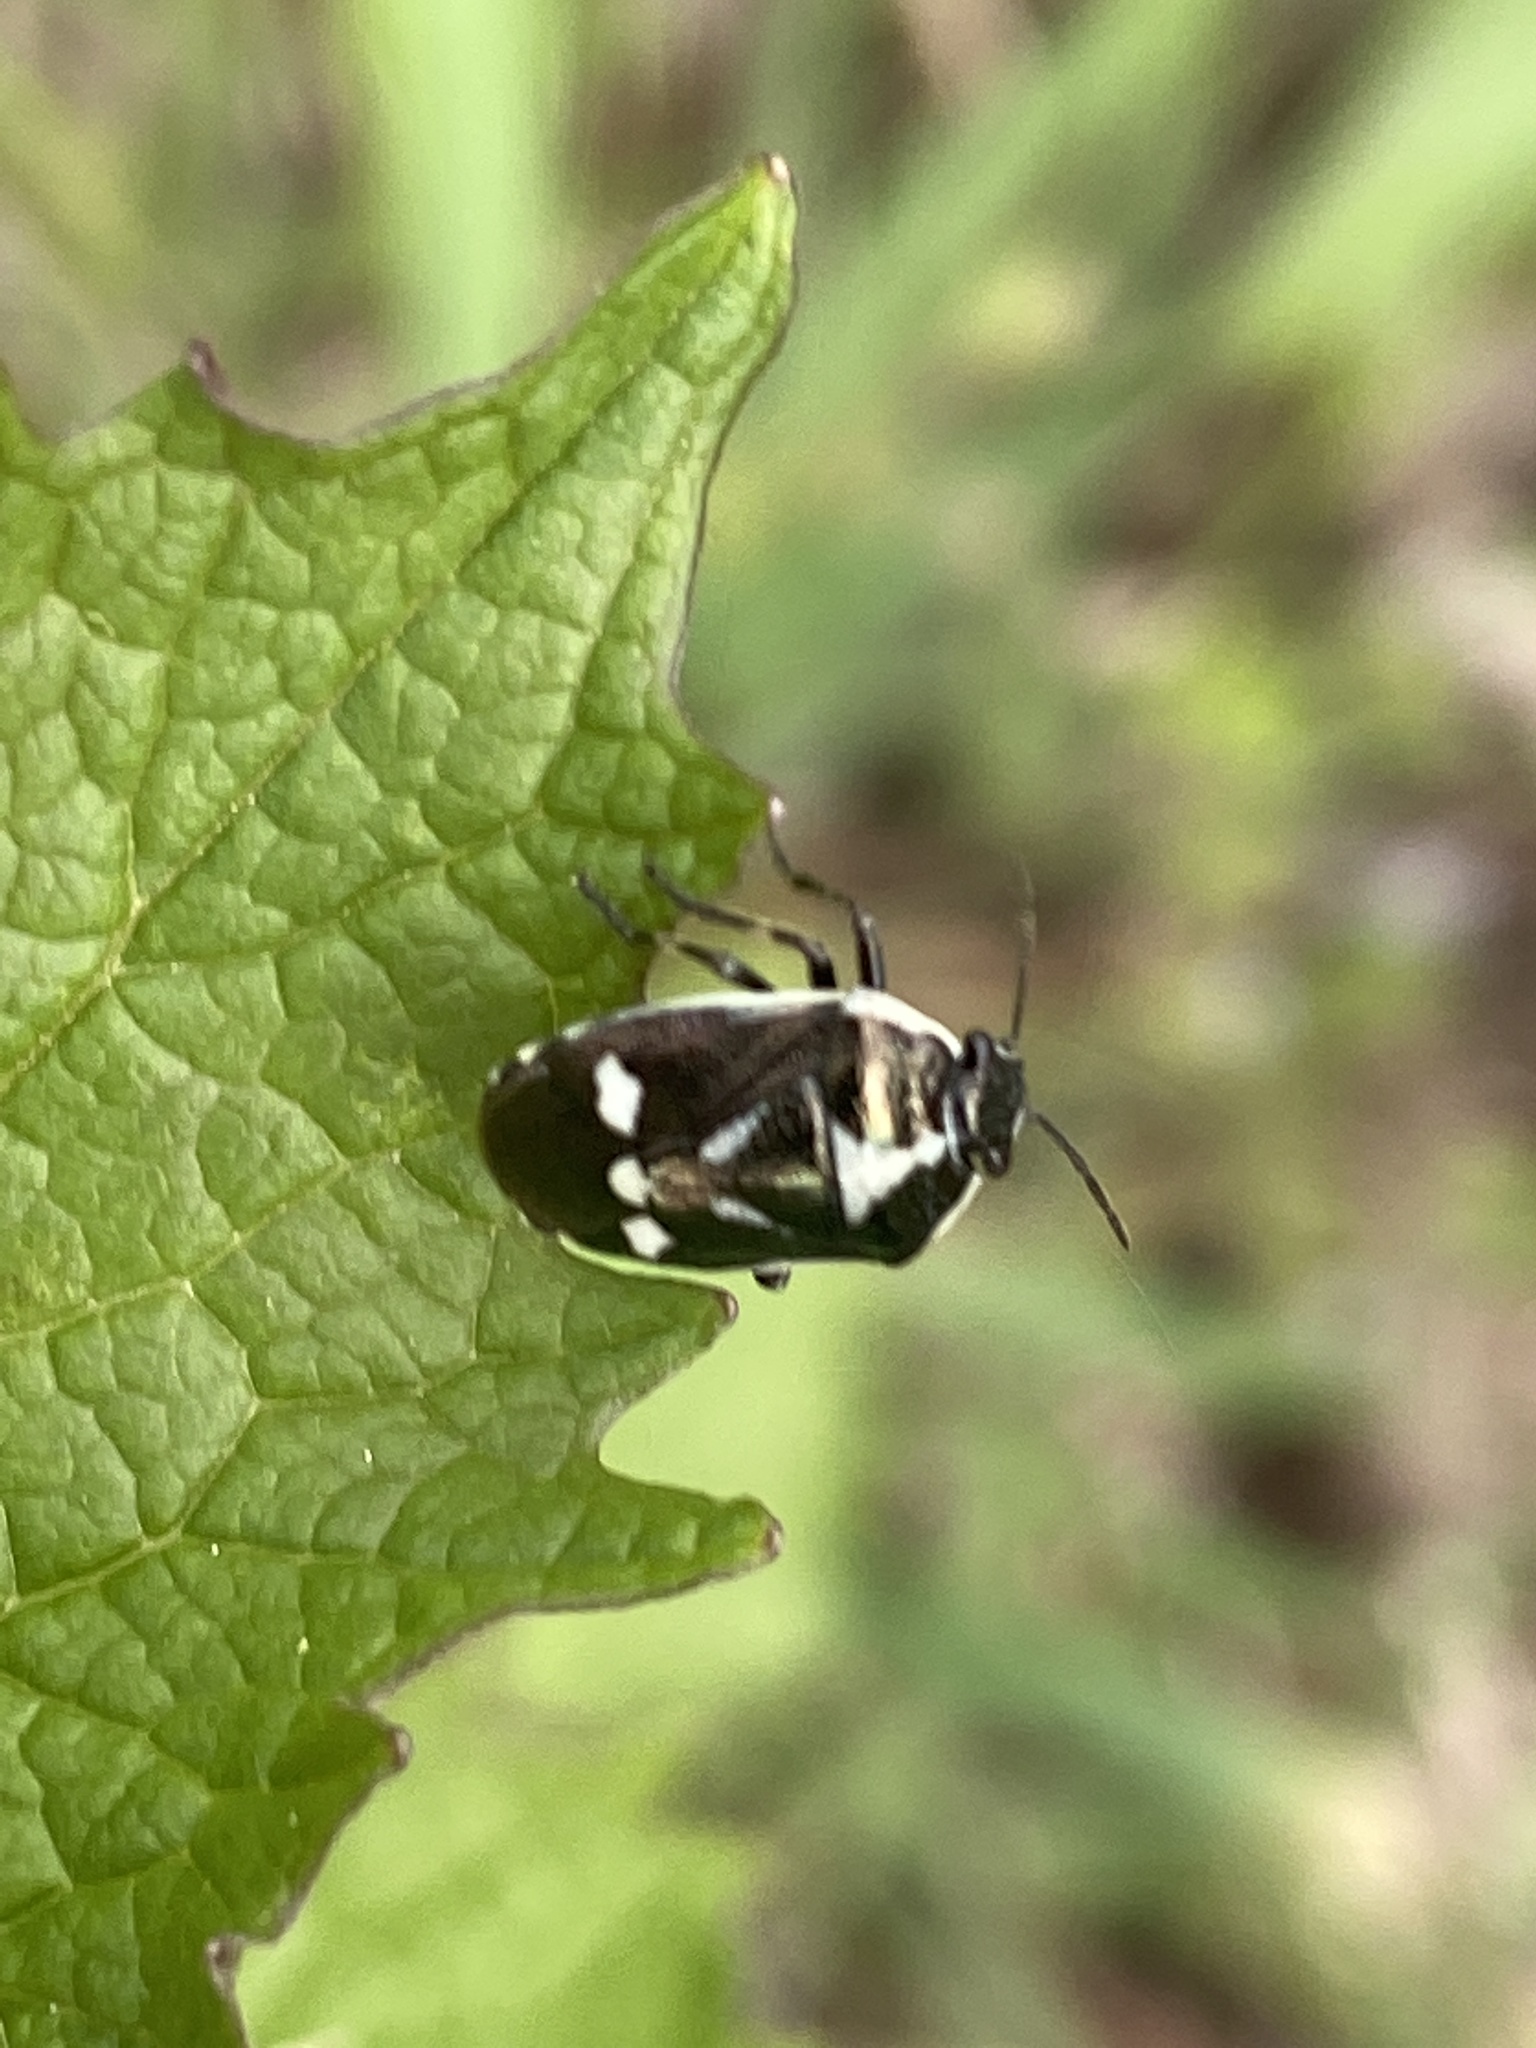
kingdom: Animalia
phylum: Arthropoda
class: Insecta
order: Hemiptera
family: Pentatomidae
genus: Eurydema
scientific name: Eurydema oleracea
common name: Cabbage bug
